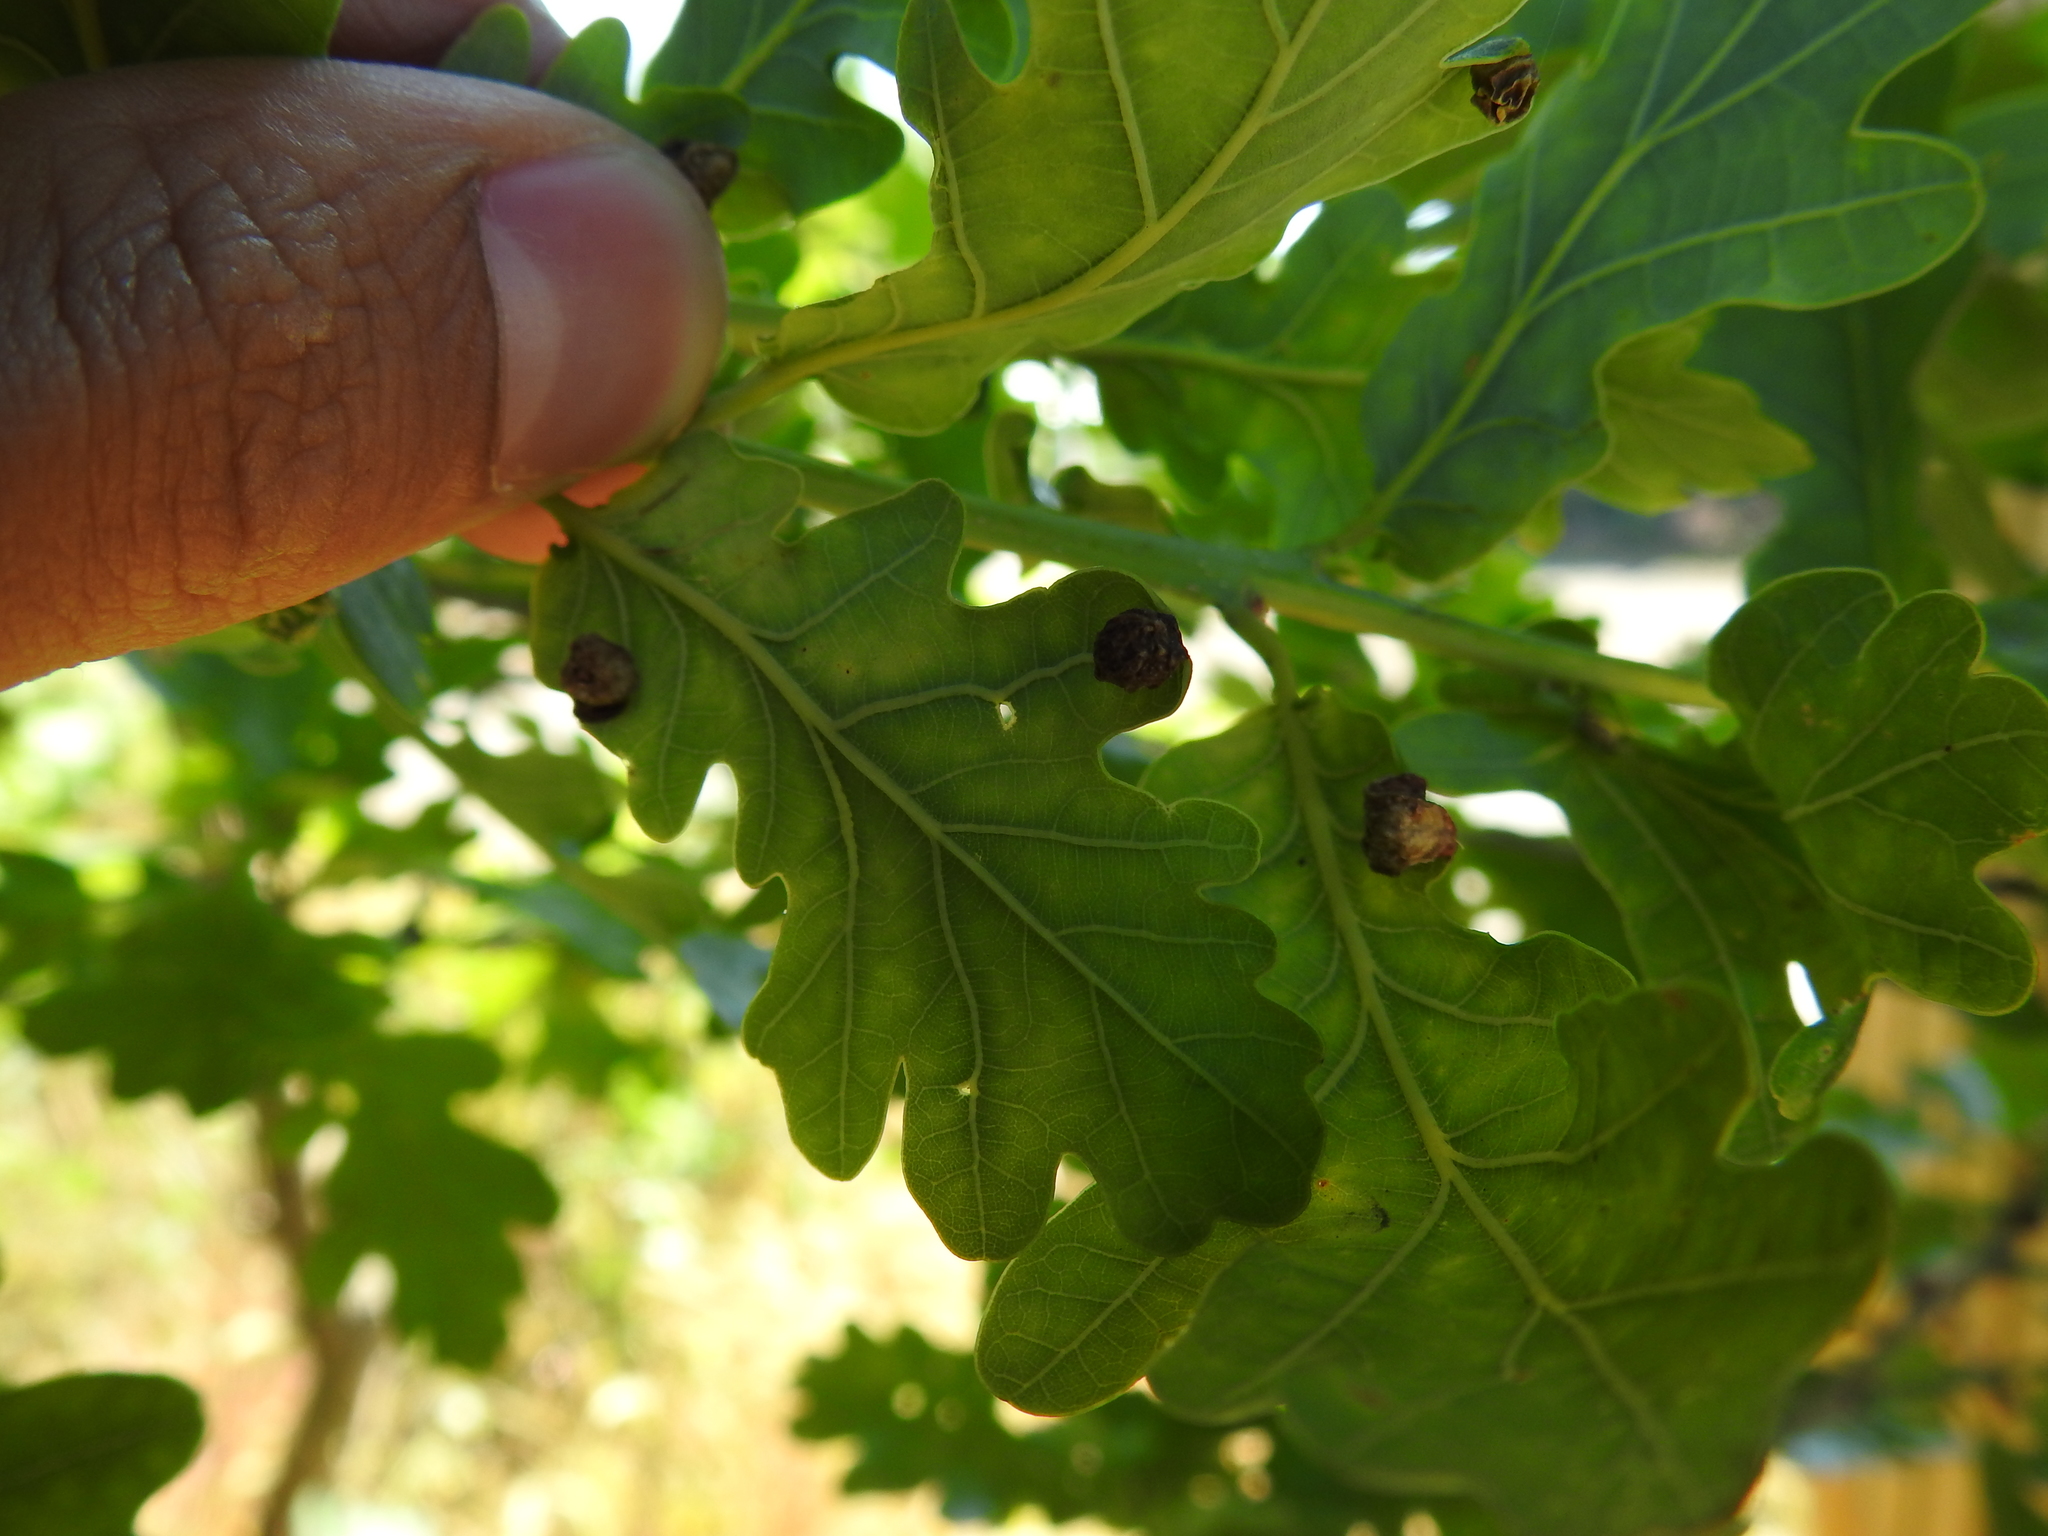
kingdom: Animalia
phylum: Arthropoda
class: Insecta
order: Hymenoptera
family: Cynipidae
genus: Neuroterus
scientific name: Neuroterus quercusbaccarum
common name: Common spangle gall
